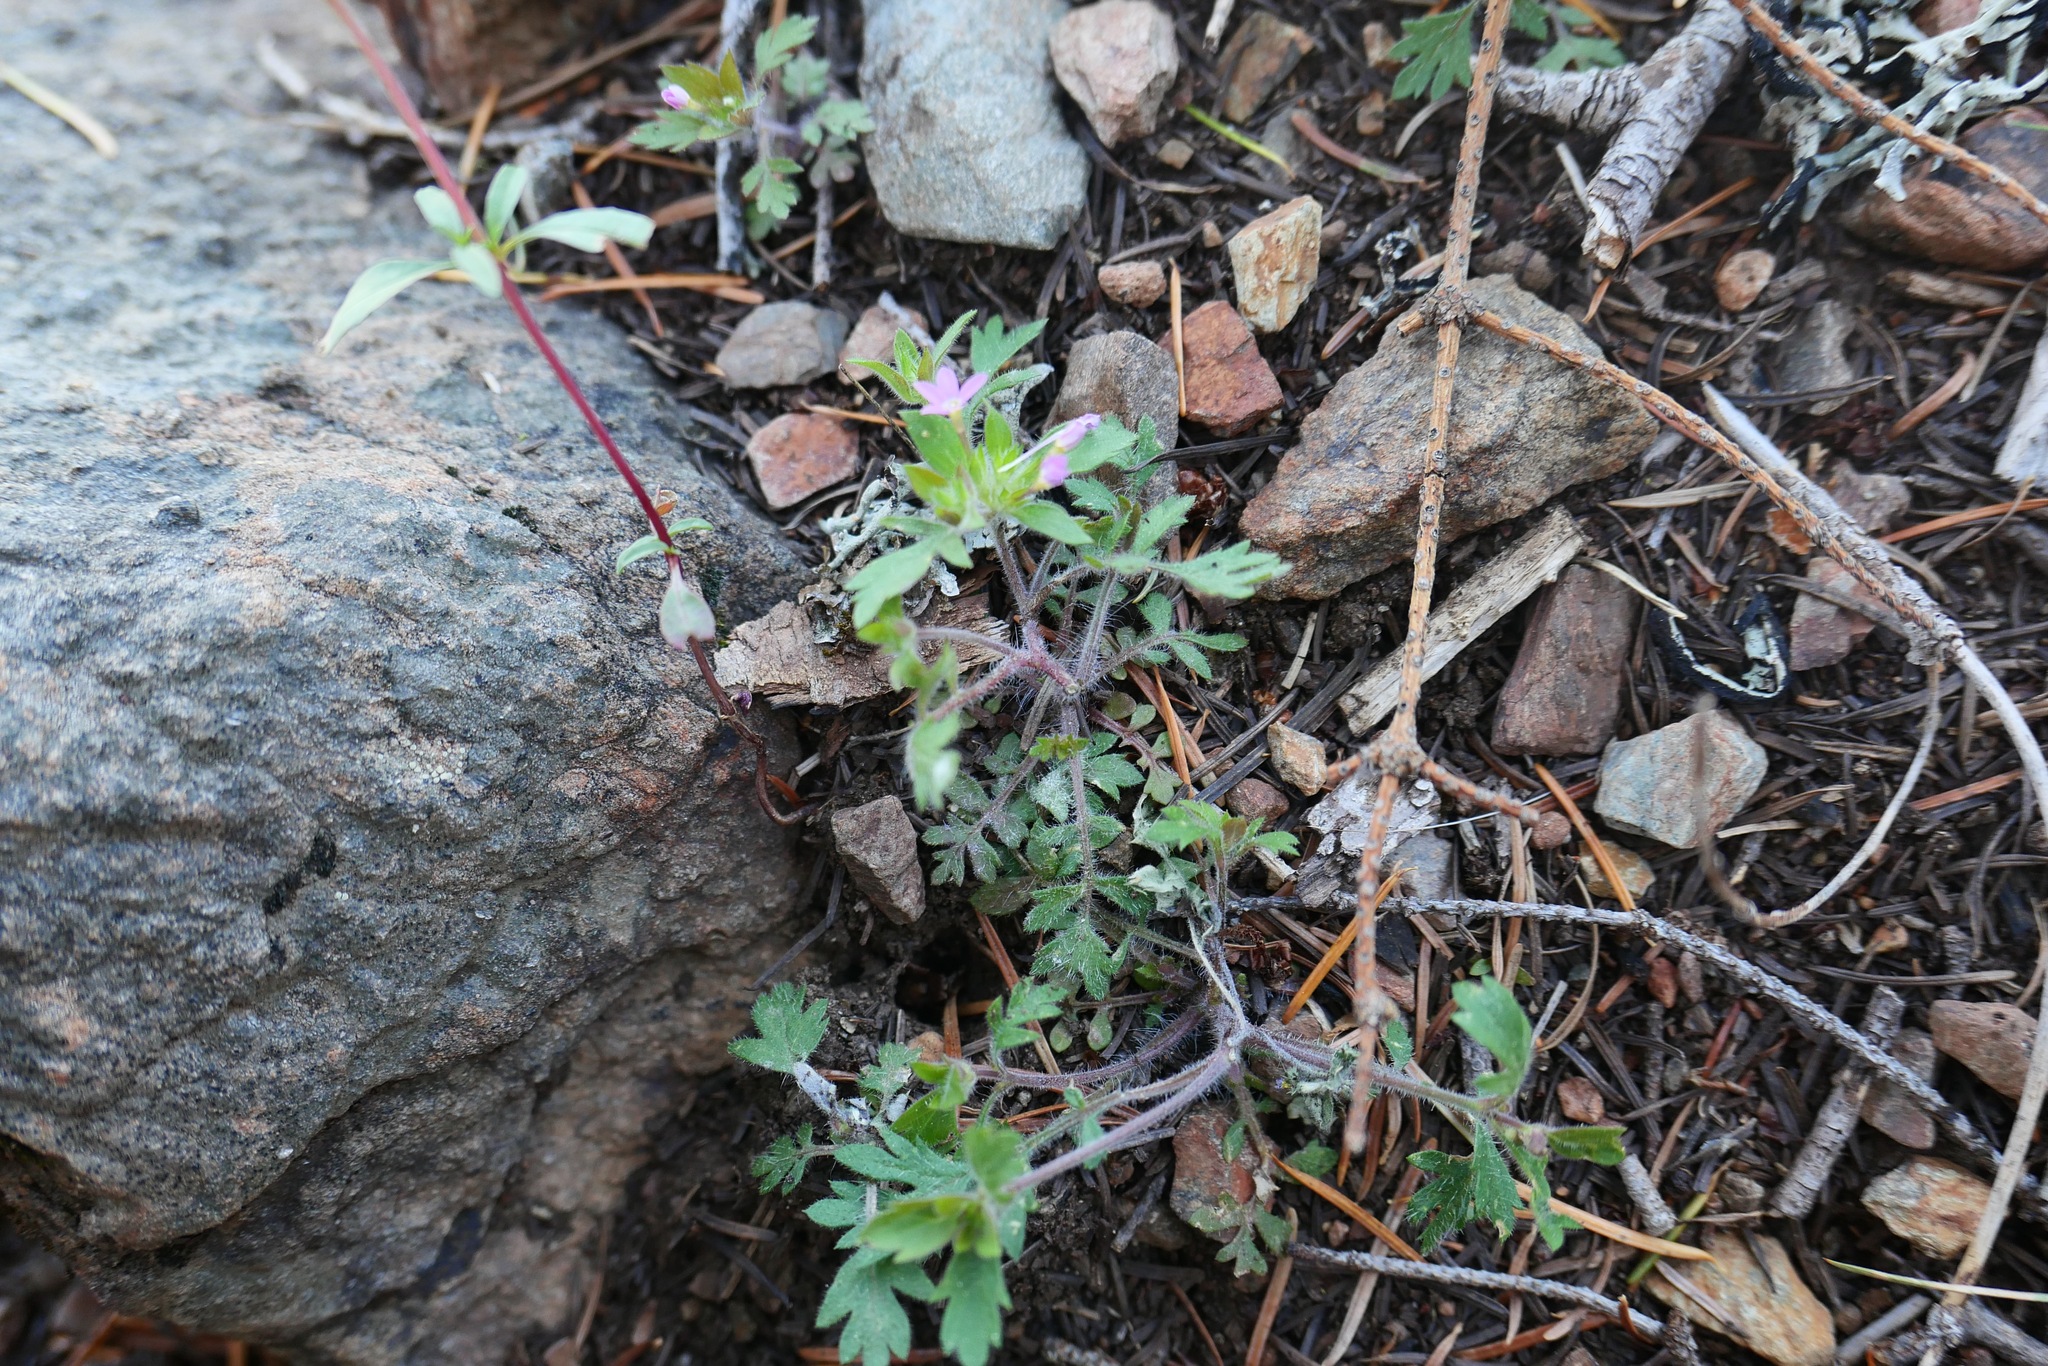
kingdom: Plantae
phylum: Tracheophyta
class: Magnoliopsida
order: Ericales
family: Polemoniaceae
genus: Collomia
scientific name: Collomia heterophylla
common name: Variable-leaved collomia
